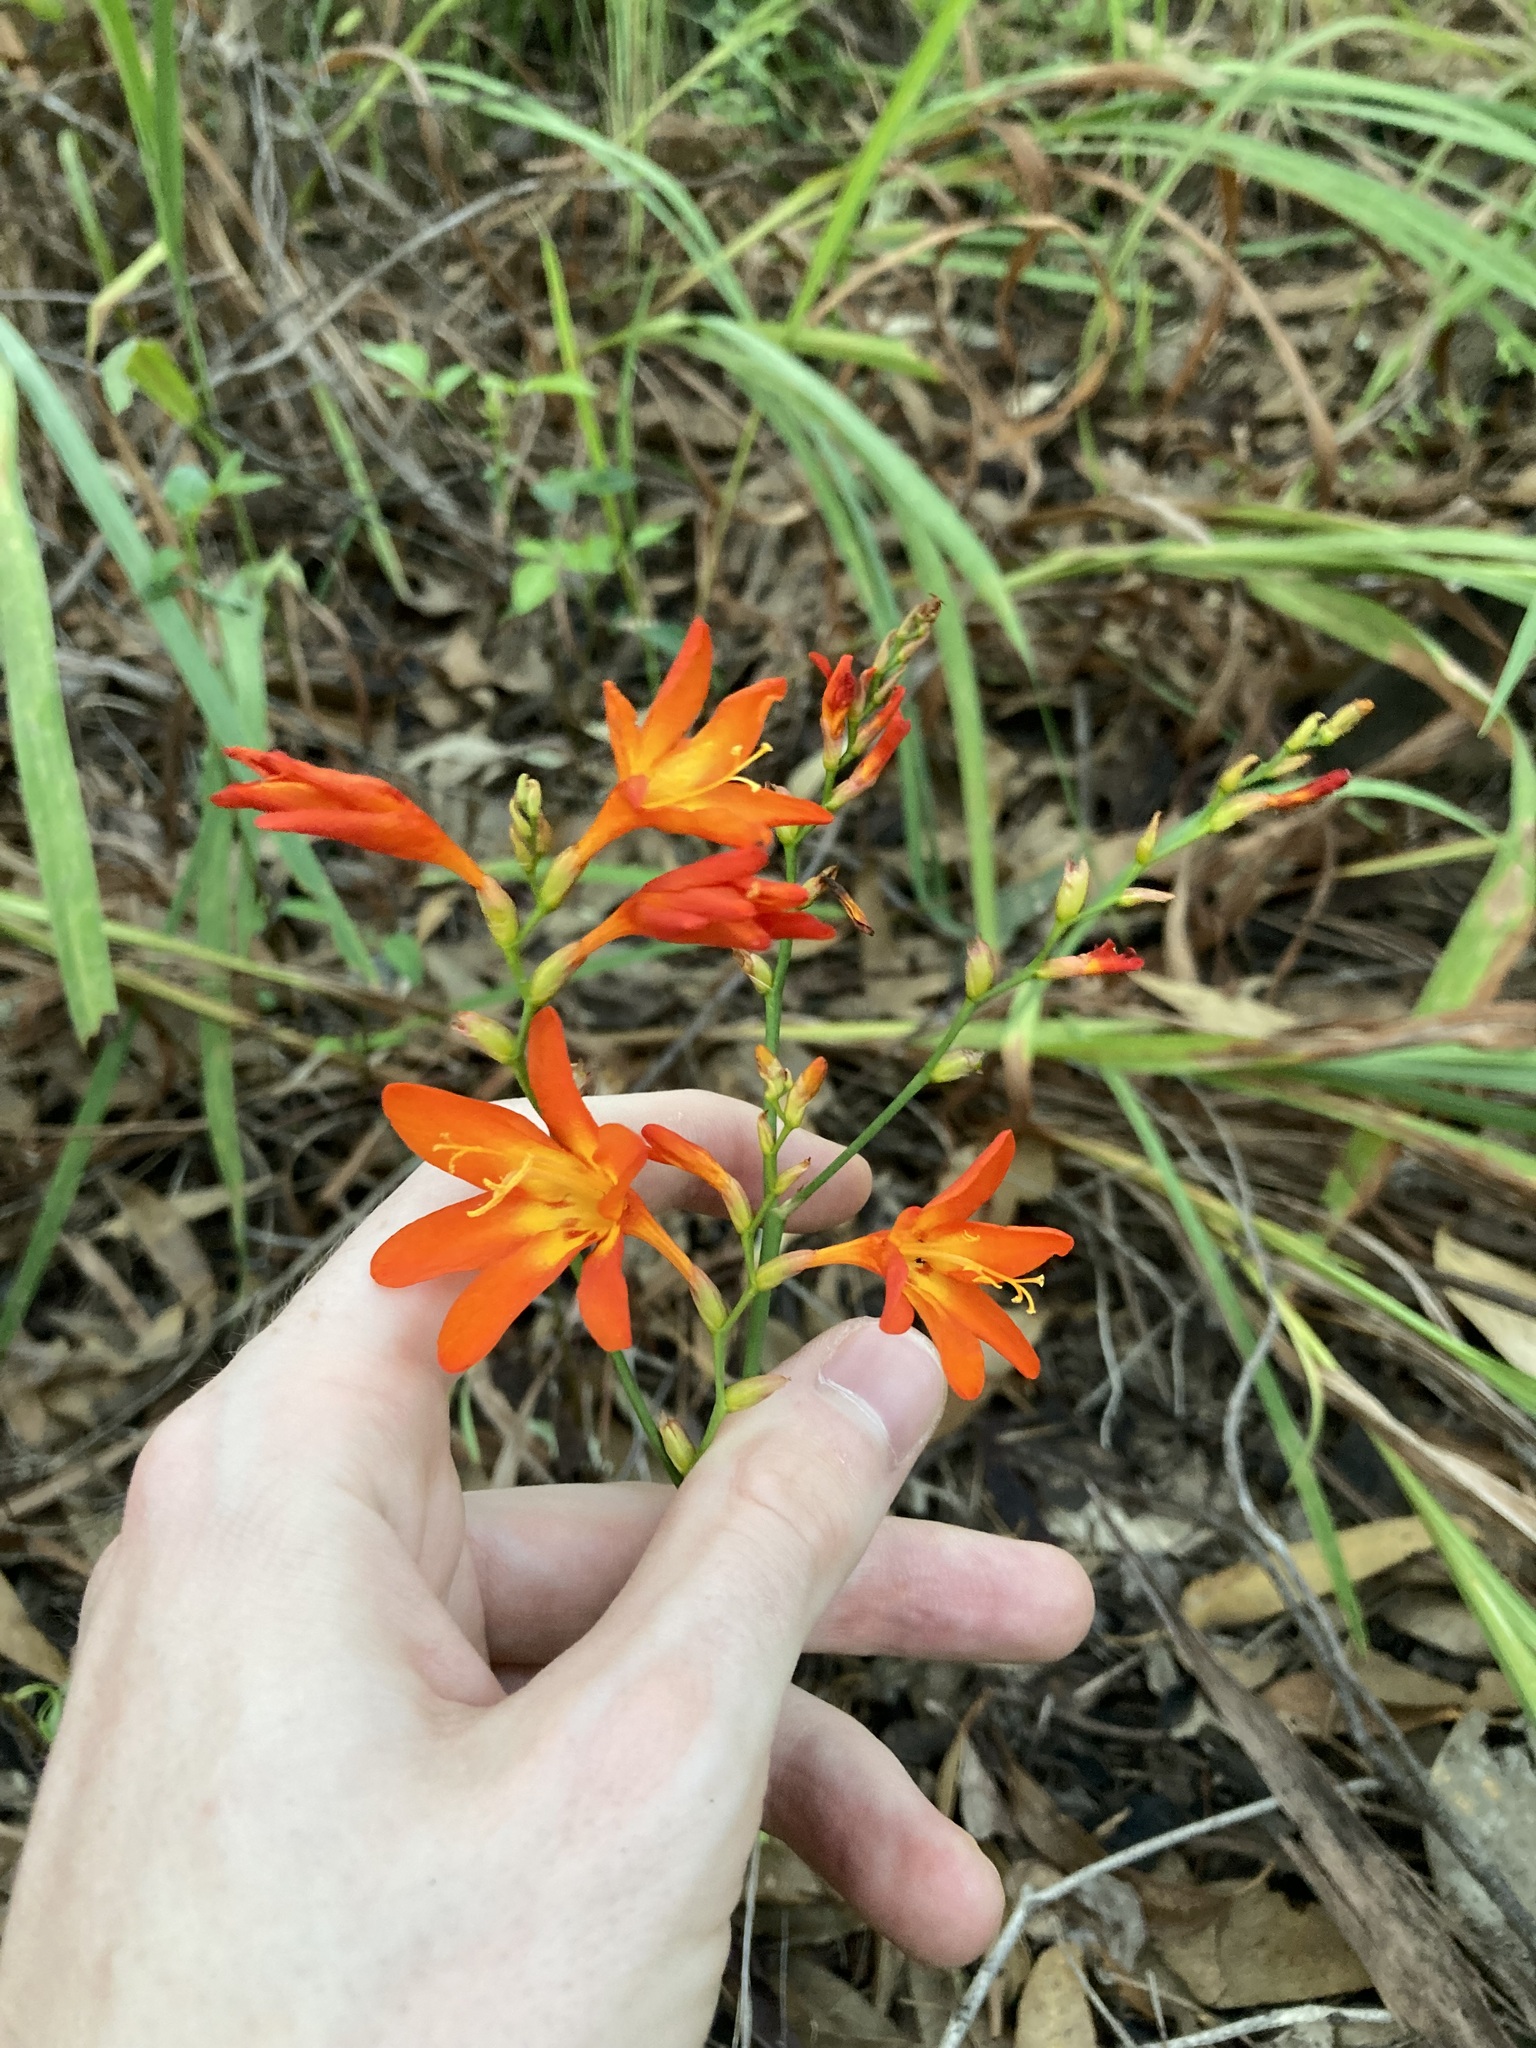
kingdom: Plantae
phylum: Tracheophyta
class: Liliopsida
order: Asparagales
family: Iridaceae
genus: Crocosmia
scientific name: Crocosmia crocosmiiflora
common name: Montbretia
